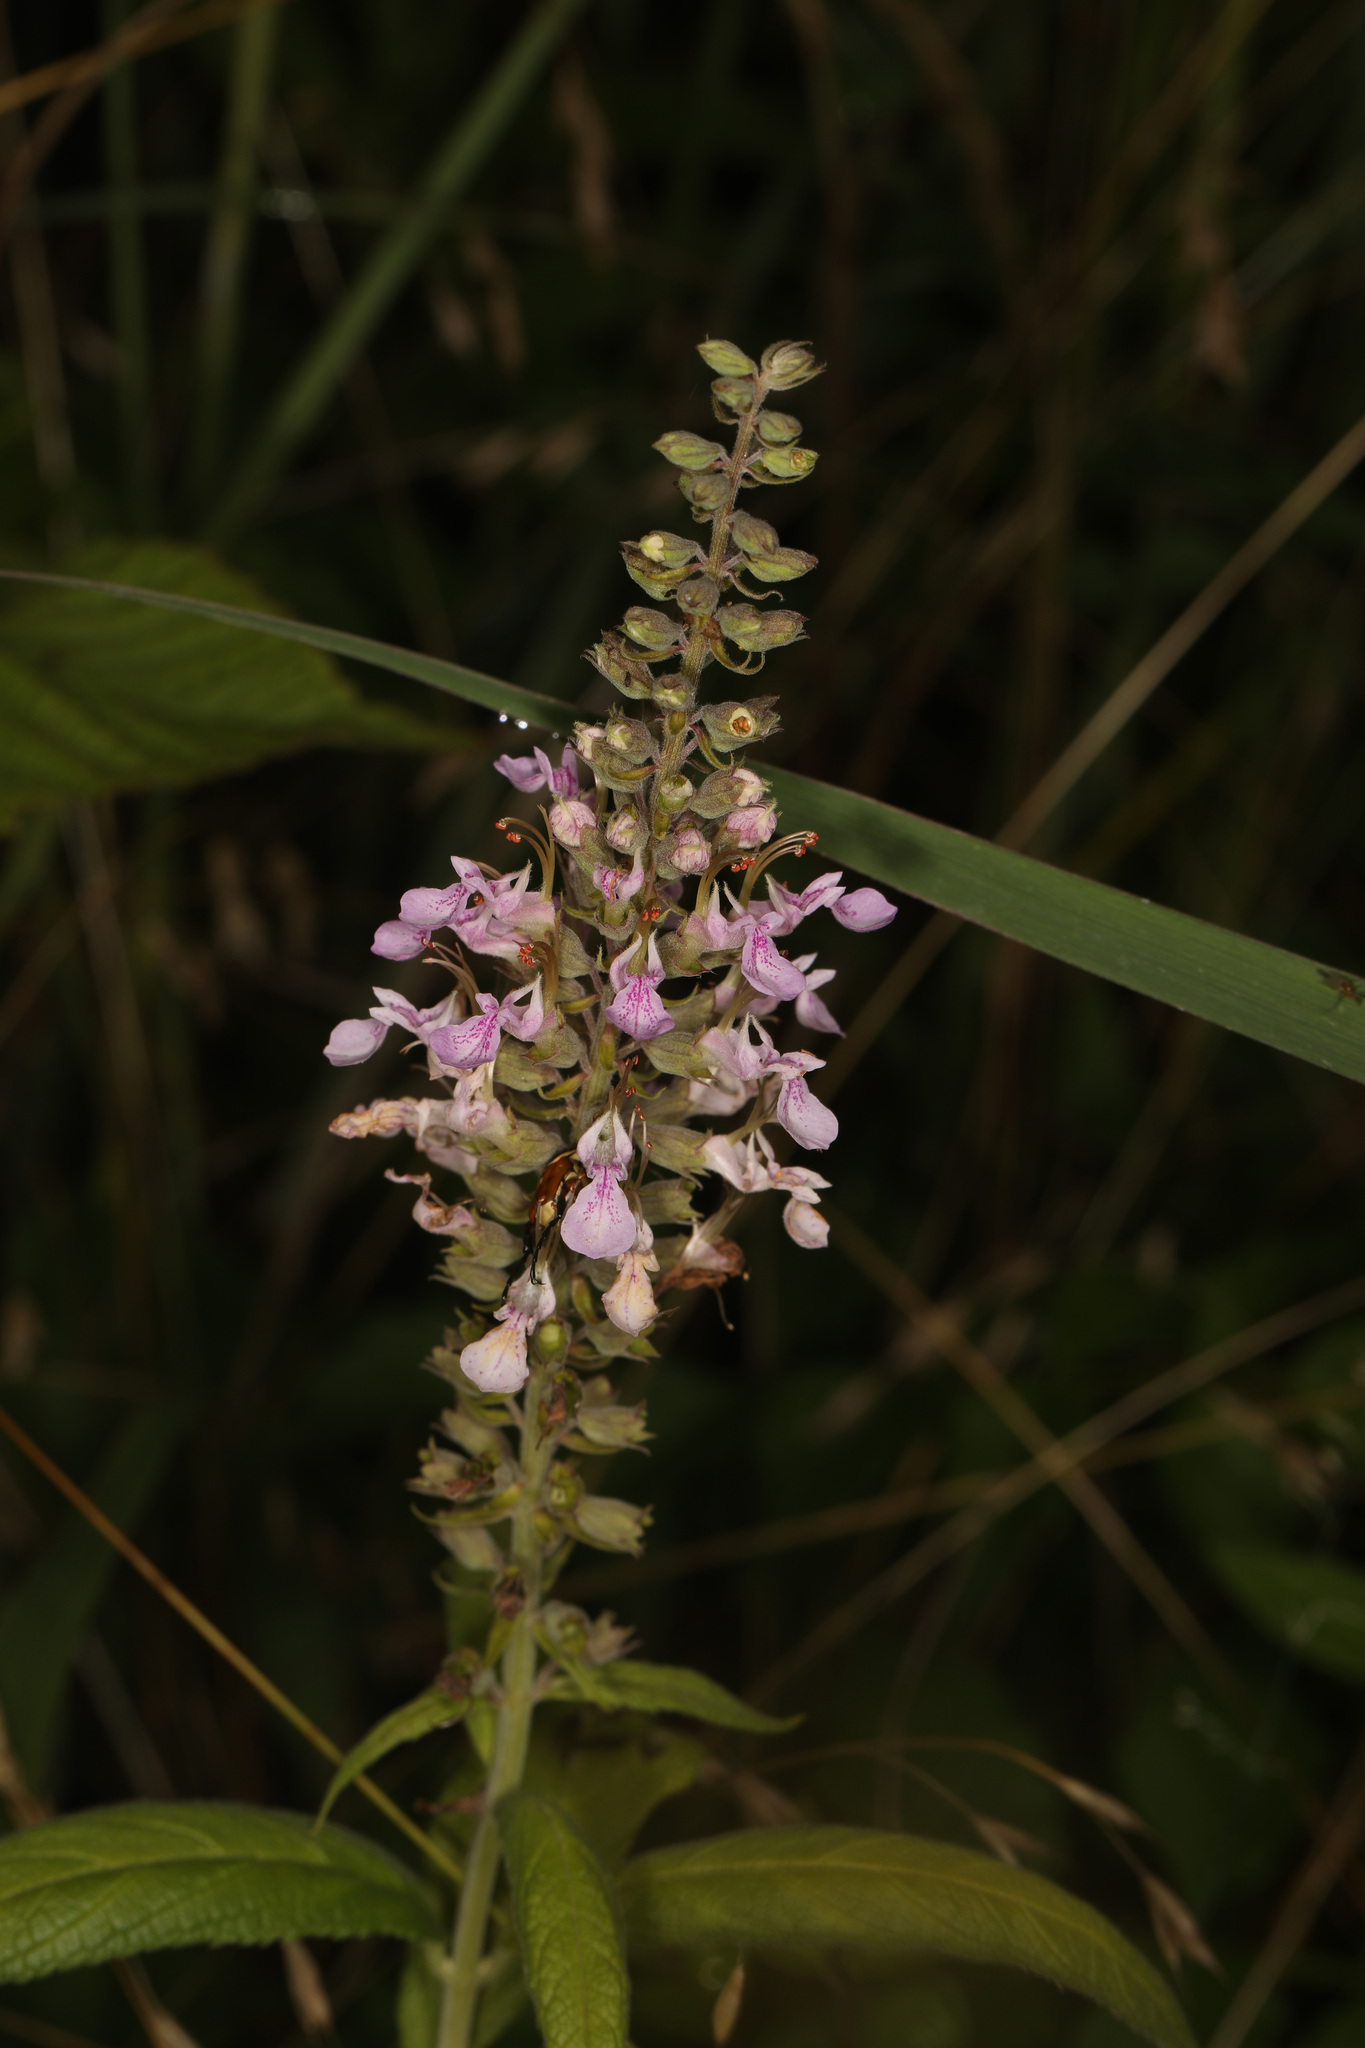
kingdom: Plantae
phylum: Tracheophyta
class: Magnoliopsida
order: Lamiales
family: Lamiaceae
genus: Teucrium
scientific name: Teucrium canadense
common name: American germander
